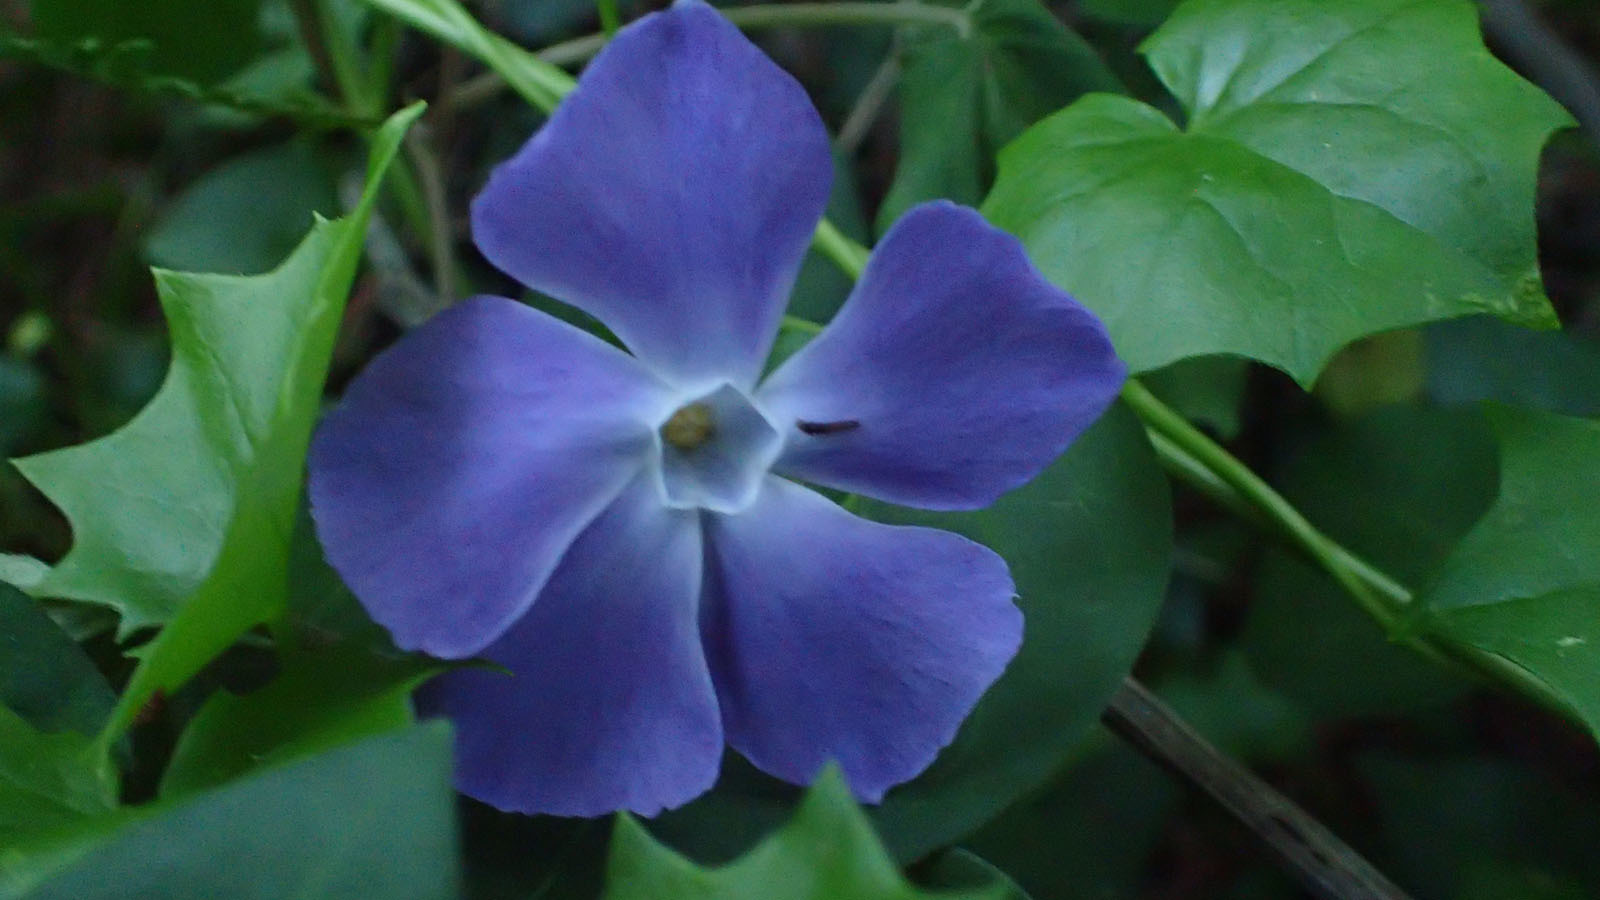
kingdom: Plantae
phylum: Tracheophyta
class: Magnoliopsida
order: Gentianales
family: Apocynaceae
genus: Vinca
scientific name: Vinca major
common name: Greater periwinkle
